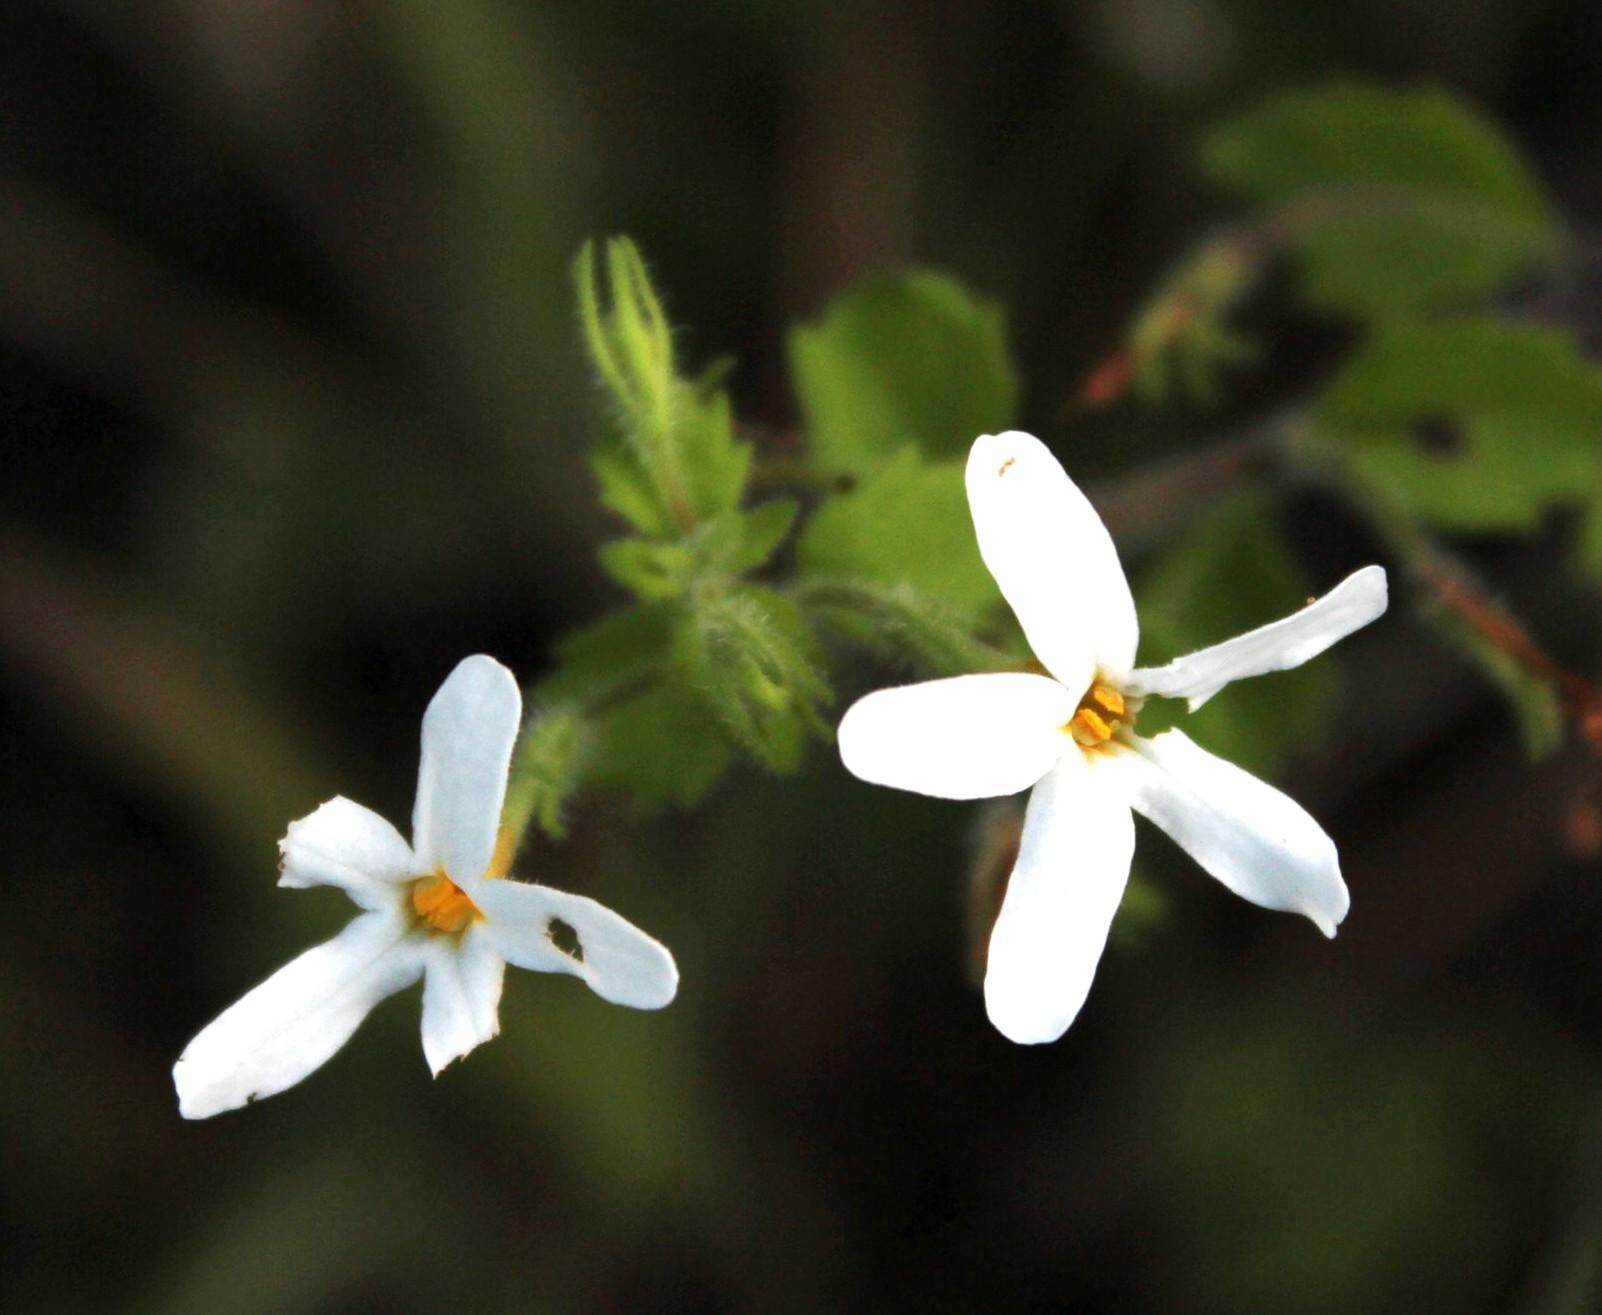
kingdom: Plantae
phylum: Tracheophyta
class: Magnoliopsida
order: Lamiales
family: Scrophulariaceae
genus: Chaenostoma
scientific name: Chaenostoma hispidum
